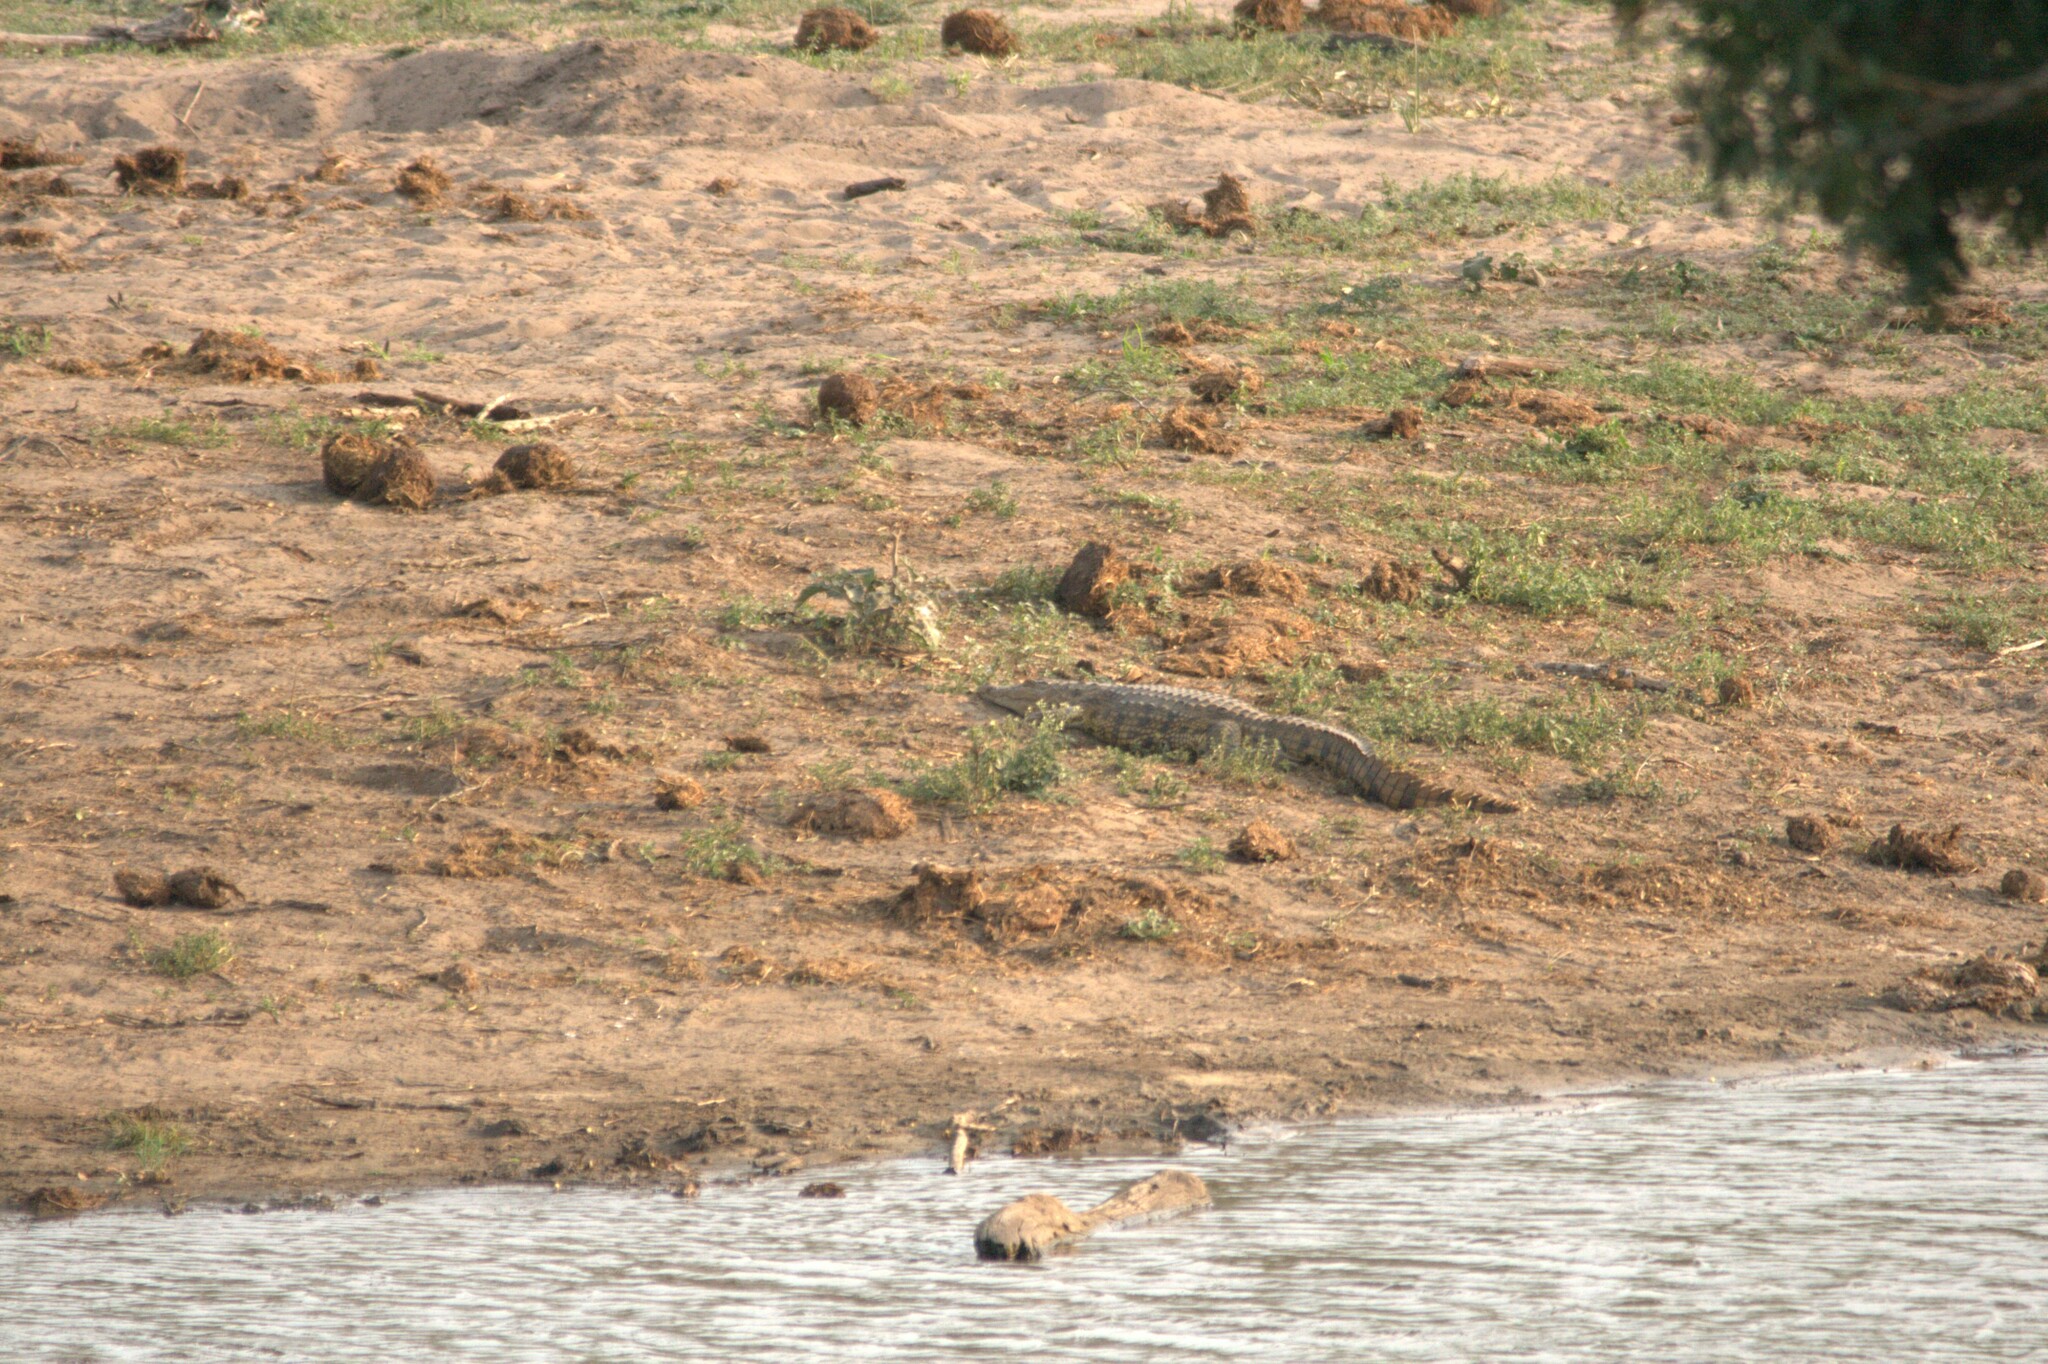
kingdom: Animalia
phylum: Chordata
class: Crocodylia
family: Crocodylidae
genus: Crocodylus
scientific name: Crocodylus niloticus
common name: Nile crocodile
